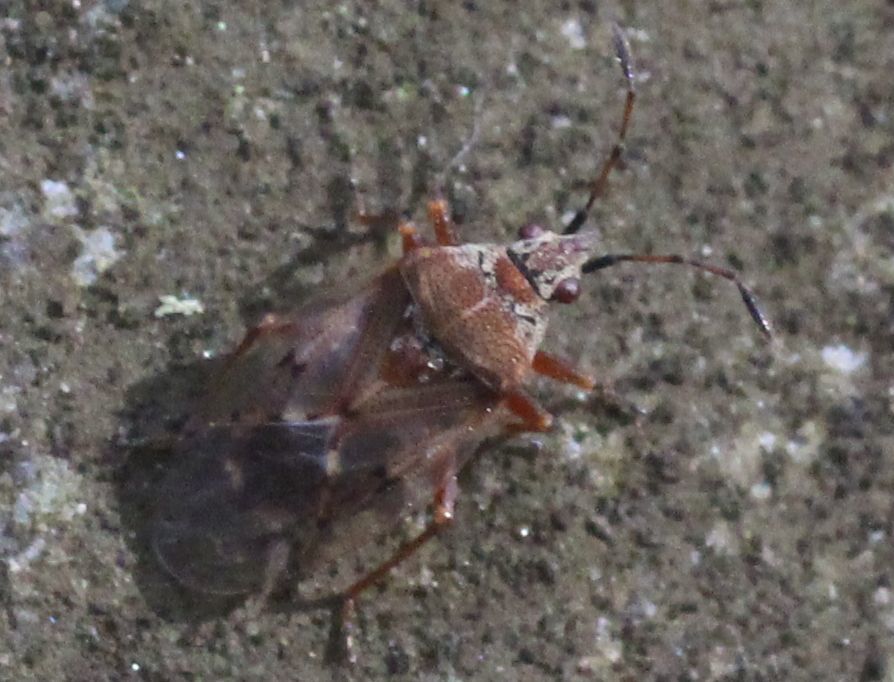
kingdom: Animalia
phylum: Arthropoda
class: Insecta
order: Hemiptera
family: Lygaeidae
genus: Kleidocerys
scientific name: Kleidocerys resedae
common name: Birch catkin bug
